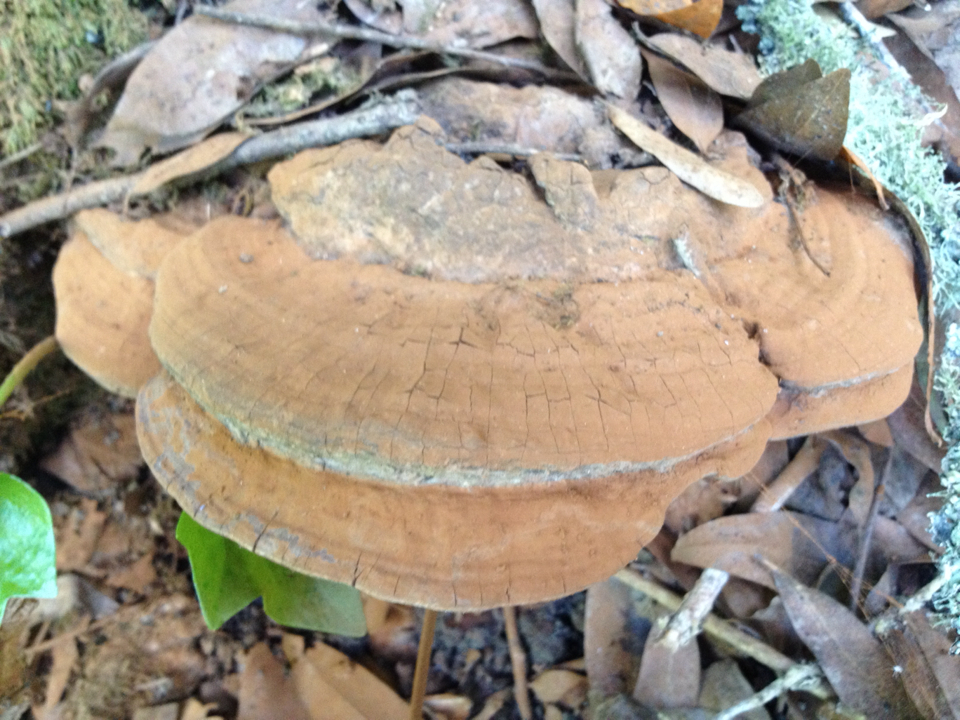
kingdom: Fungi
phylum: Basidiomycota
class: Agaricomycetes
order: Polyporales
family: Polyporaceae
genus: Ganoderma
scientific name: Ganoderma brownii
